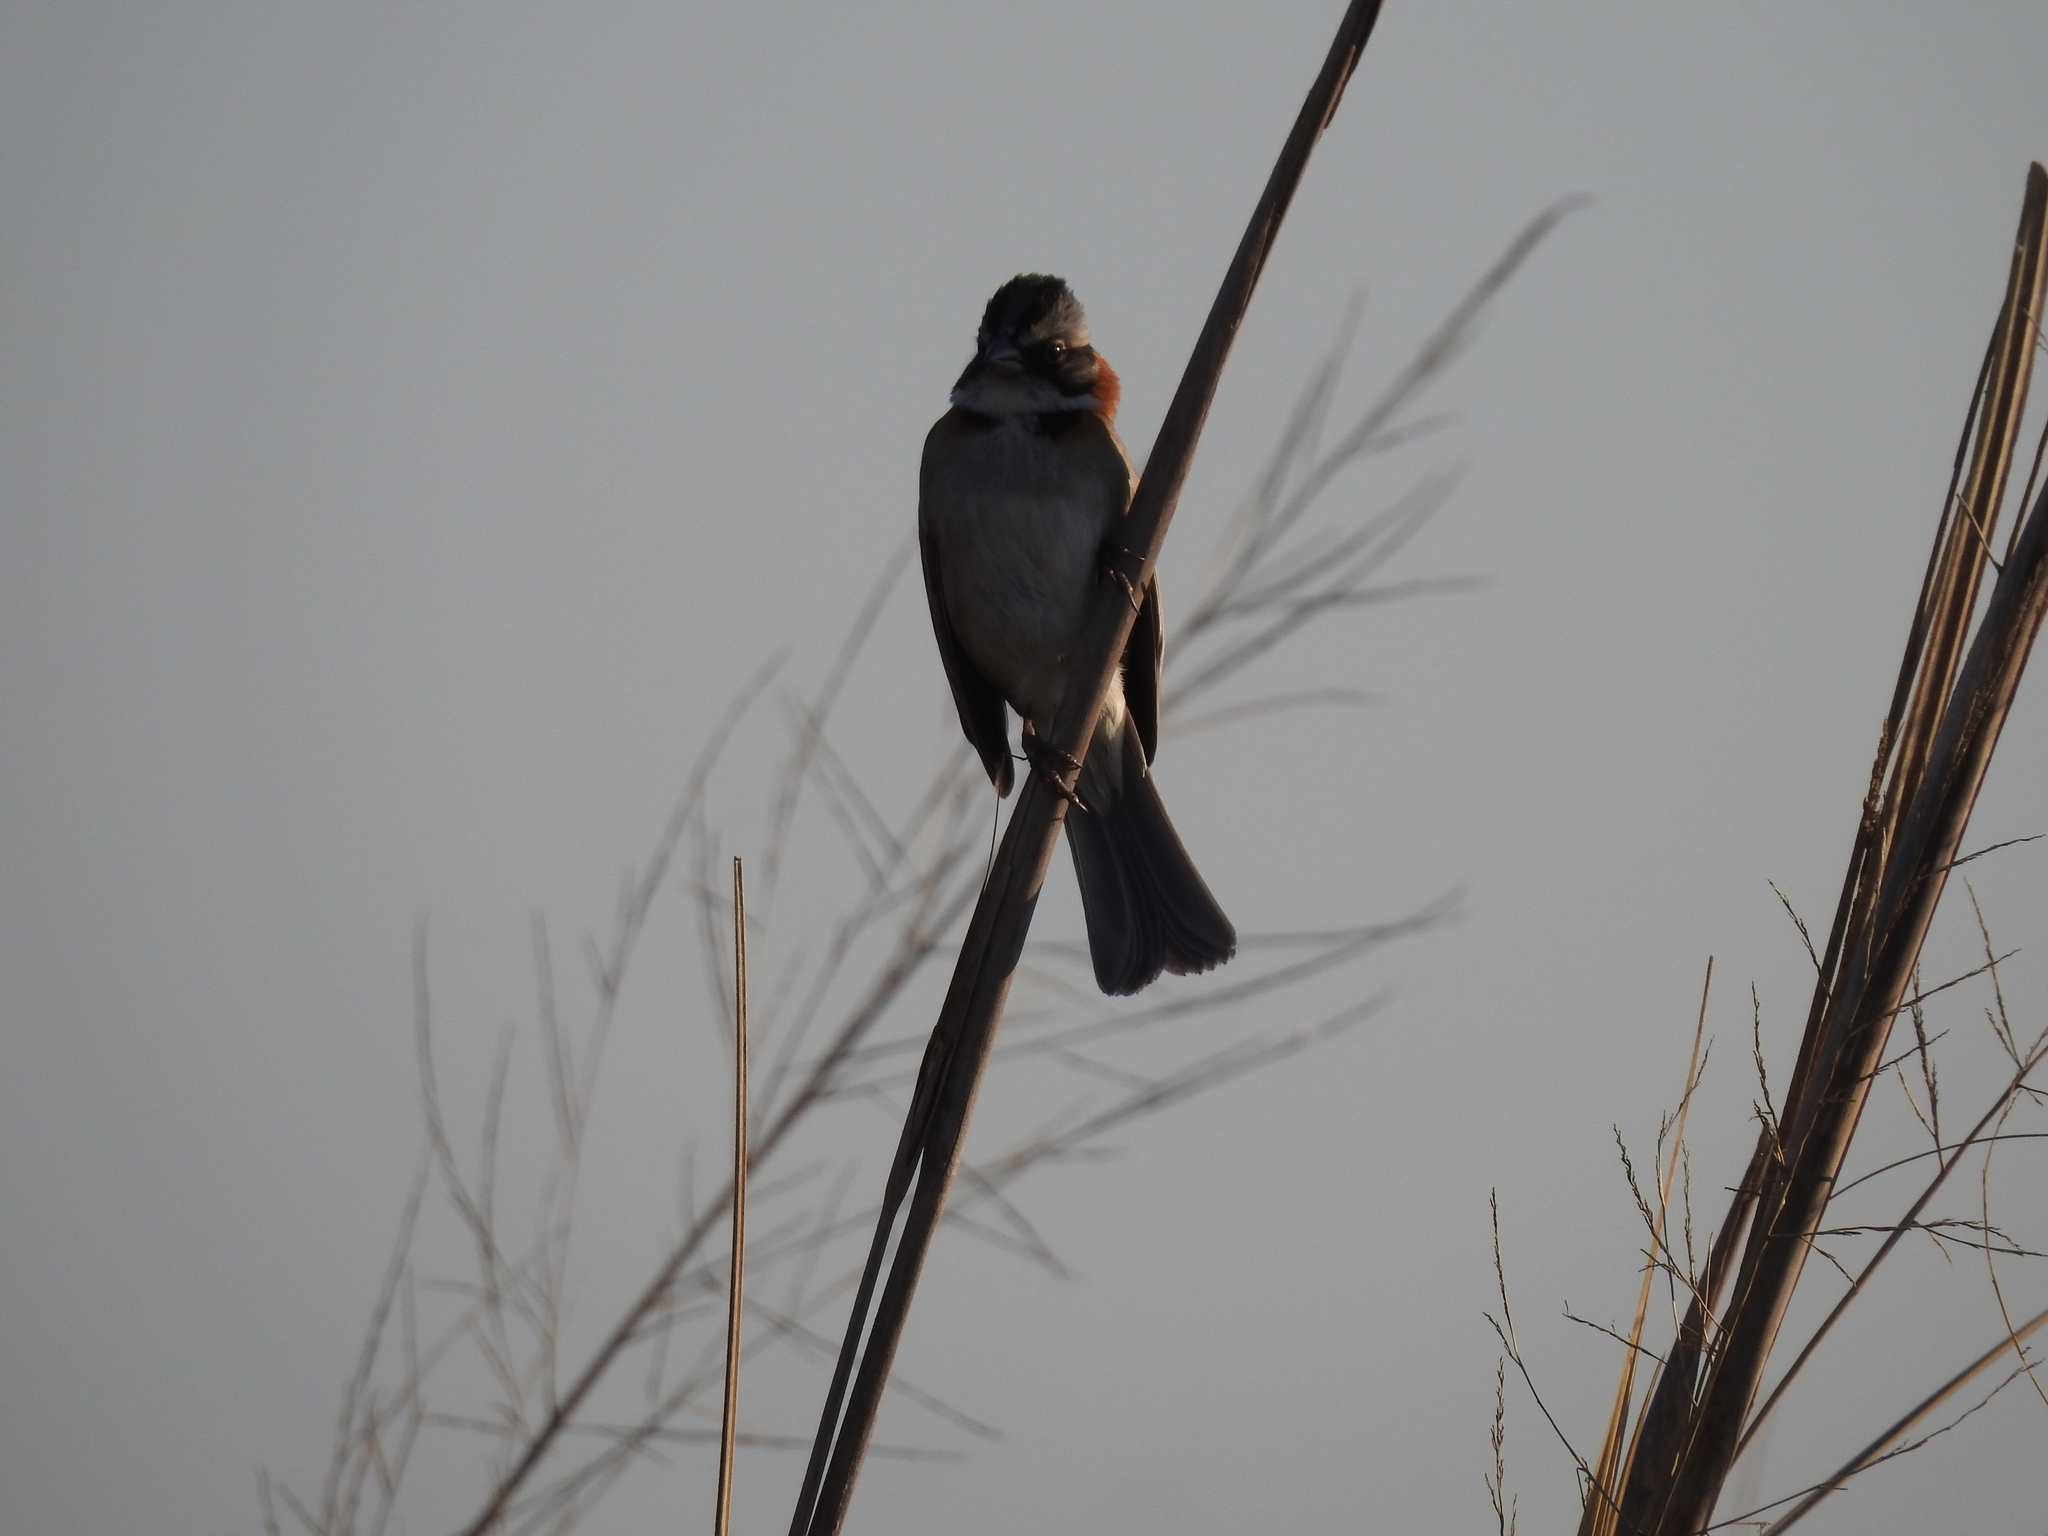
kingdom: Animalia
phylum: Chordata
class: Aves
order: Passeriformes
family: Passerellidae
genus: Zonotrichia
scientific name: Zonotrichia capensis
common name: Rufous-collared sparrow
